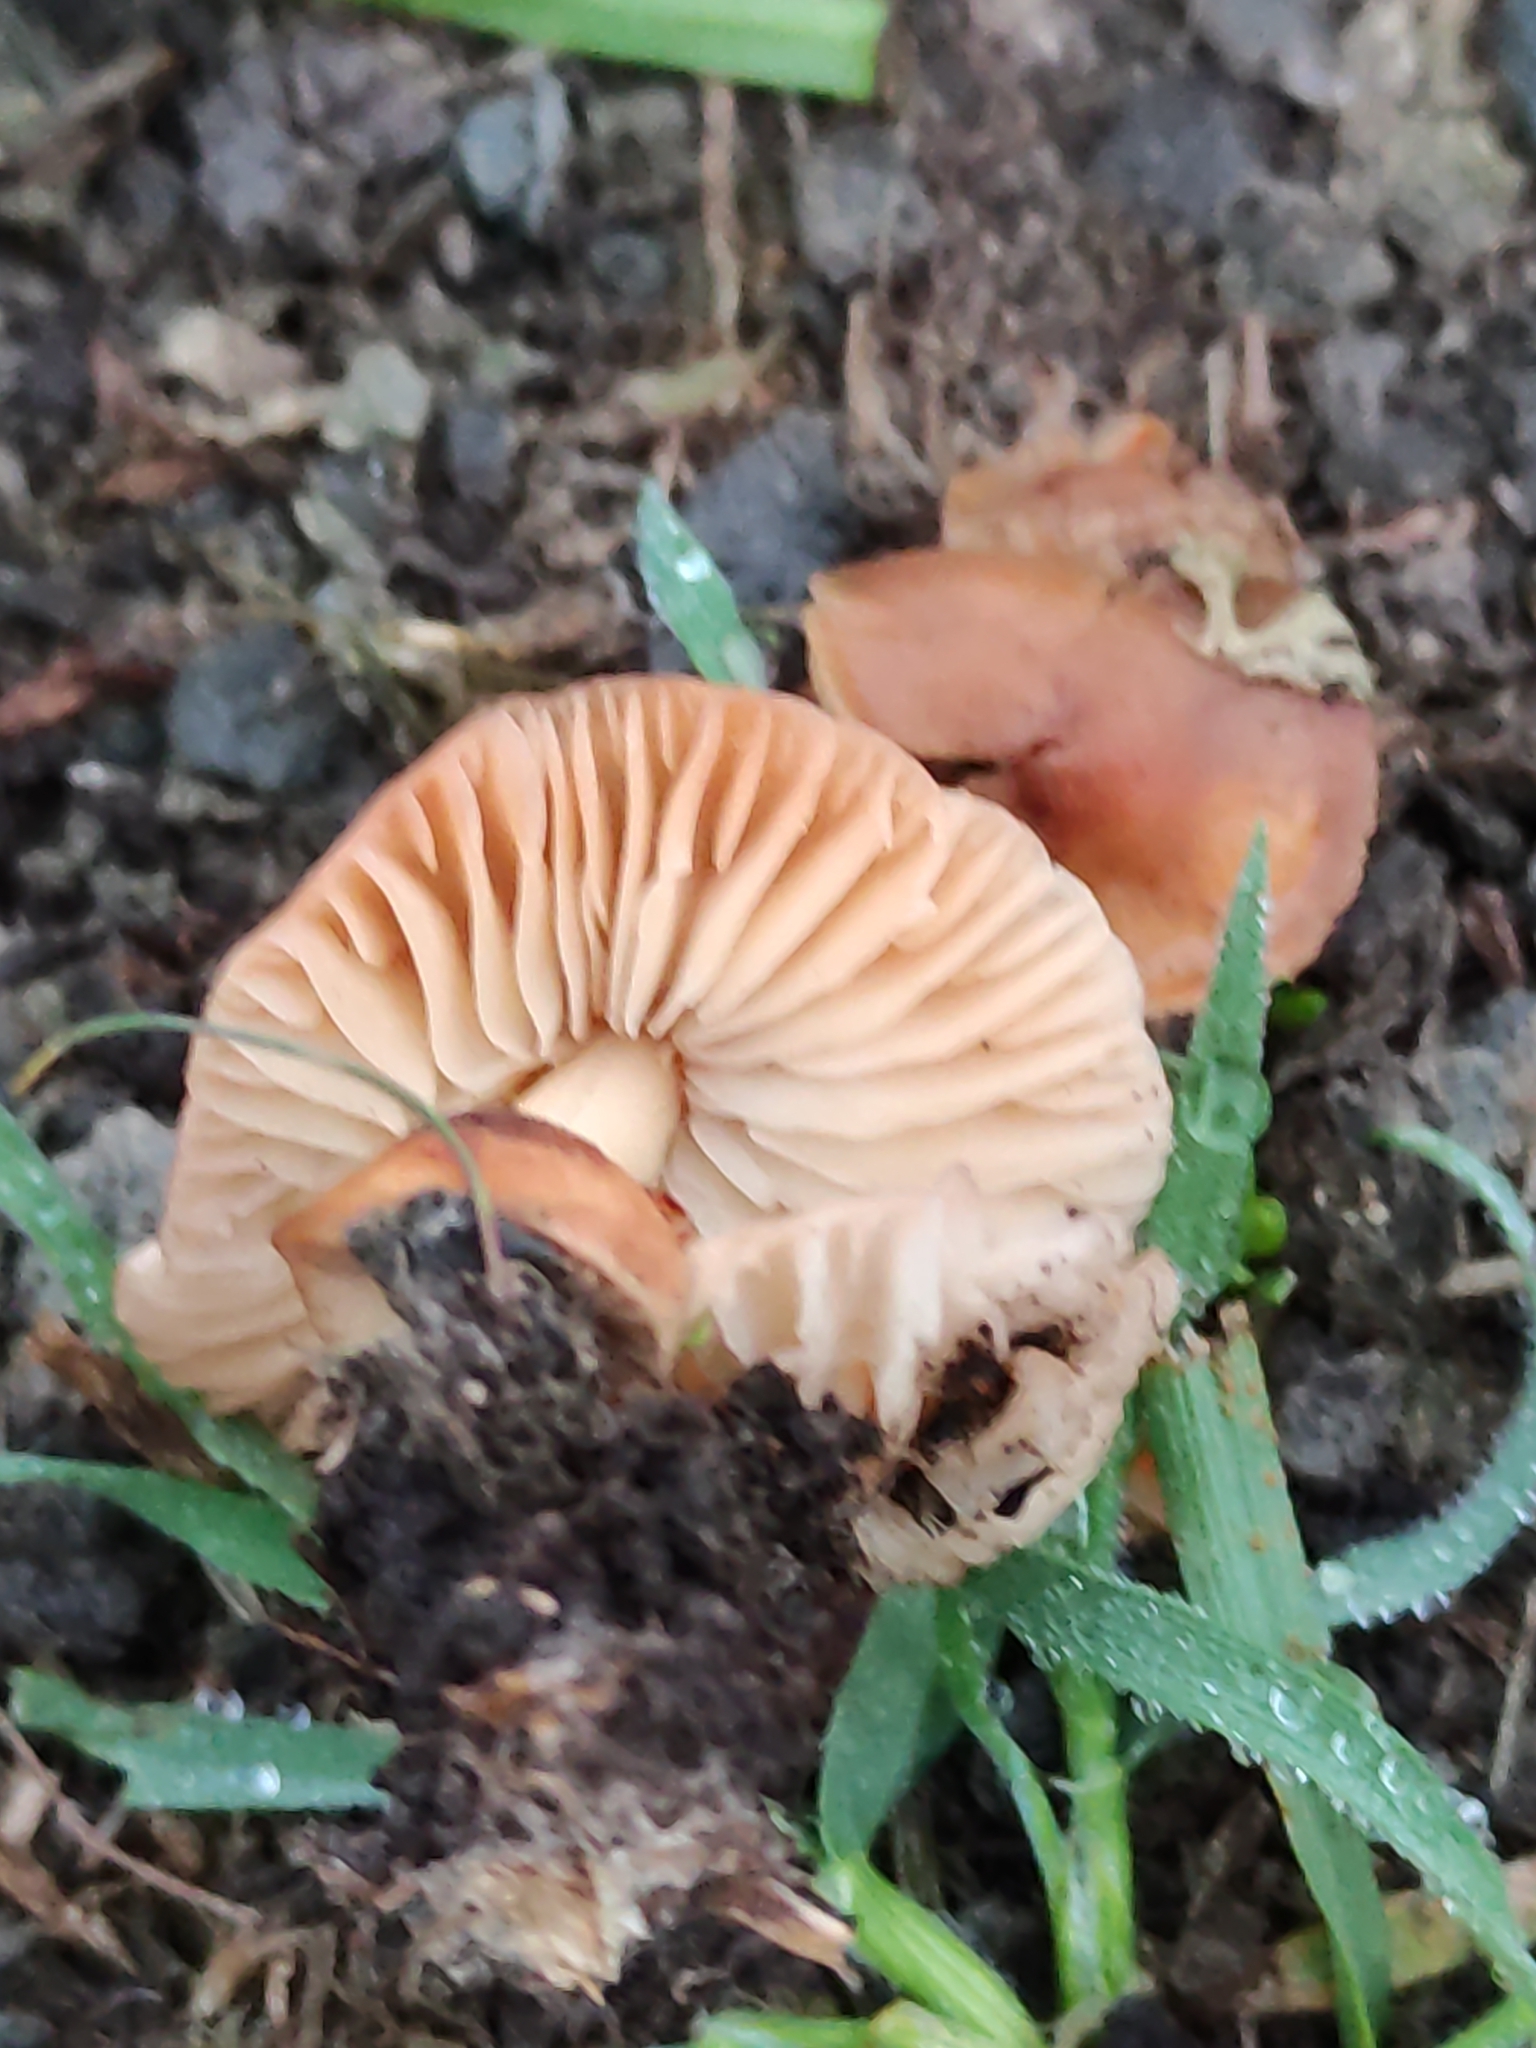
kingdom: Fungi
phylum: Basidiomycota
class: Agaricomycetes
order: Agaricales
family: Marasmiaceae
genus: Marasmius
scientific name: Marasmius oreades
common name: Fairy ring champignon
